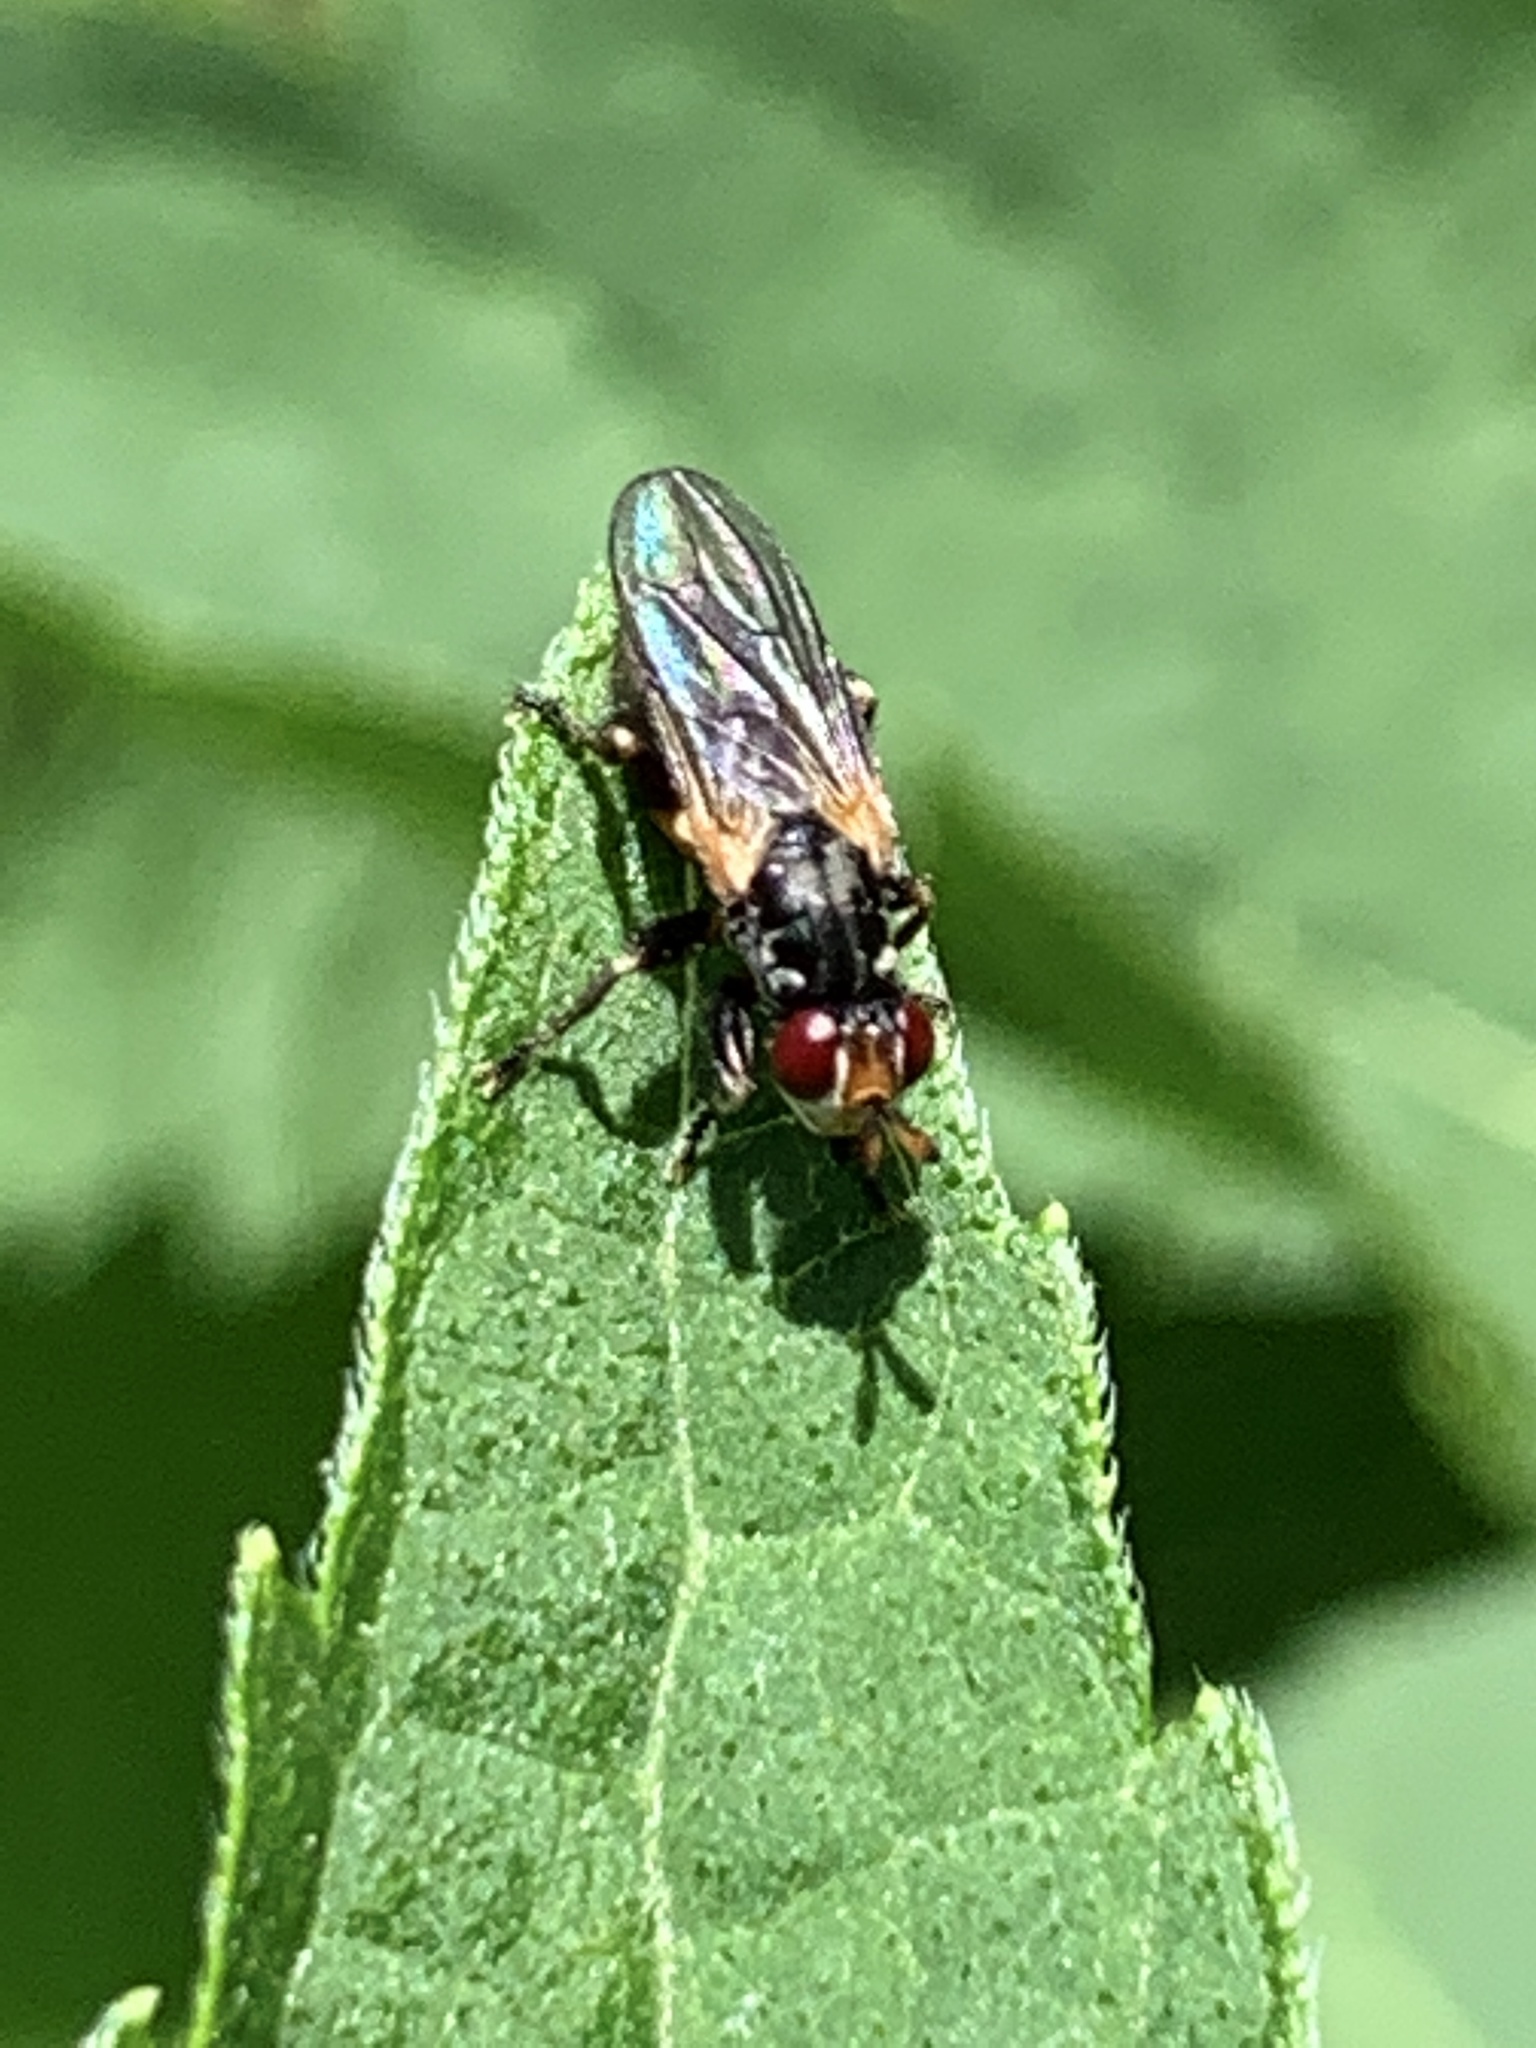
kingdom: Animalia
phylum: Arthropoda
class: Insecta
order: Diptera
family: Conopidae
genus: Thecophora
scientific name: Thecophora occidensis
